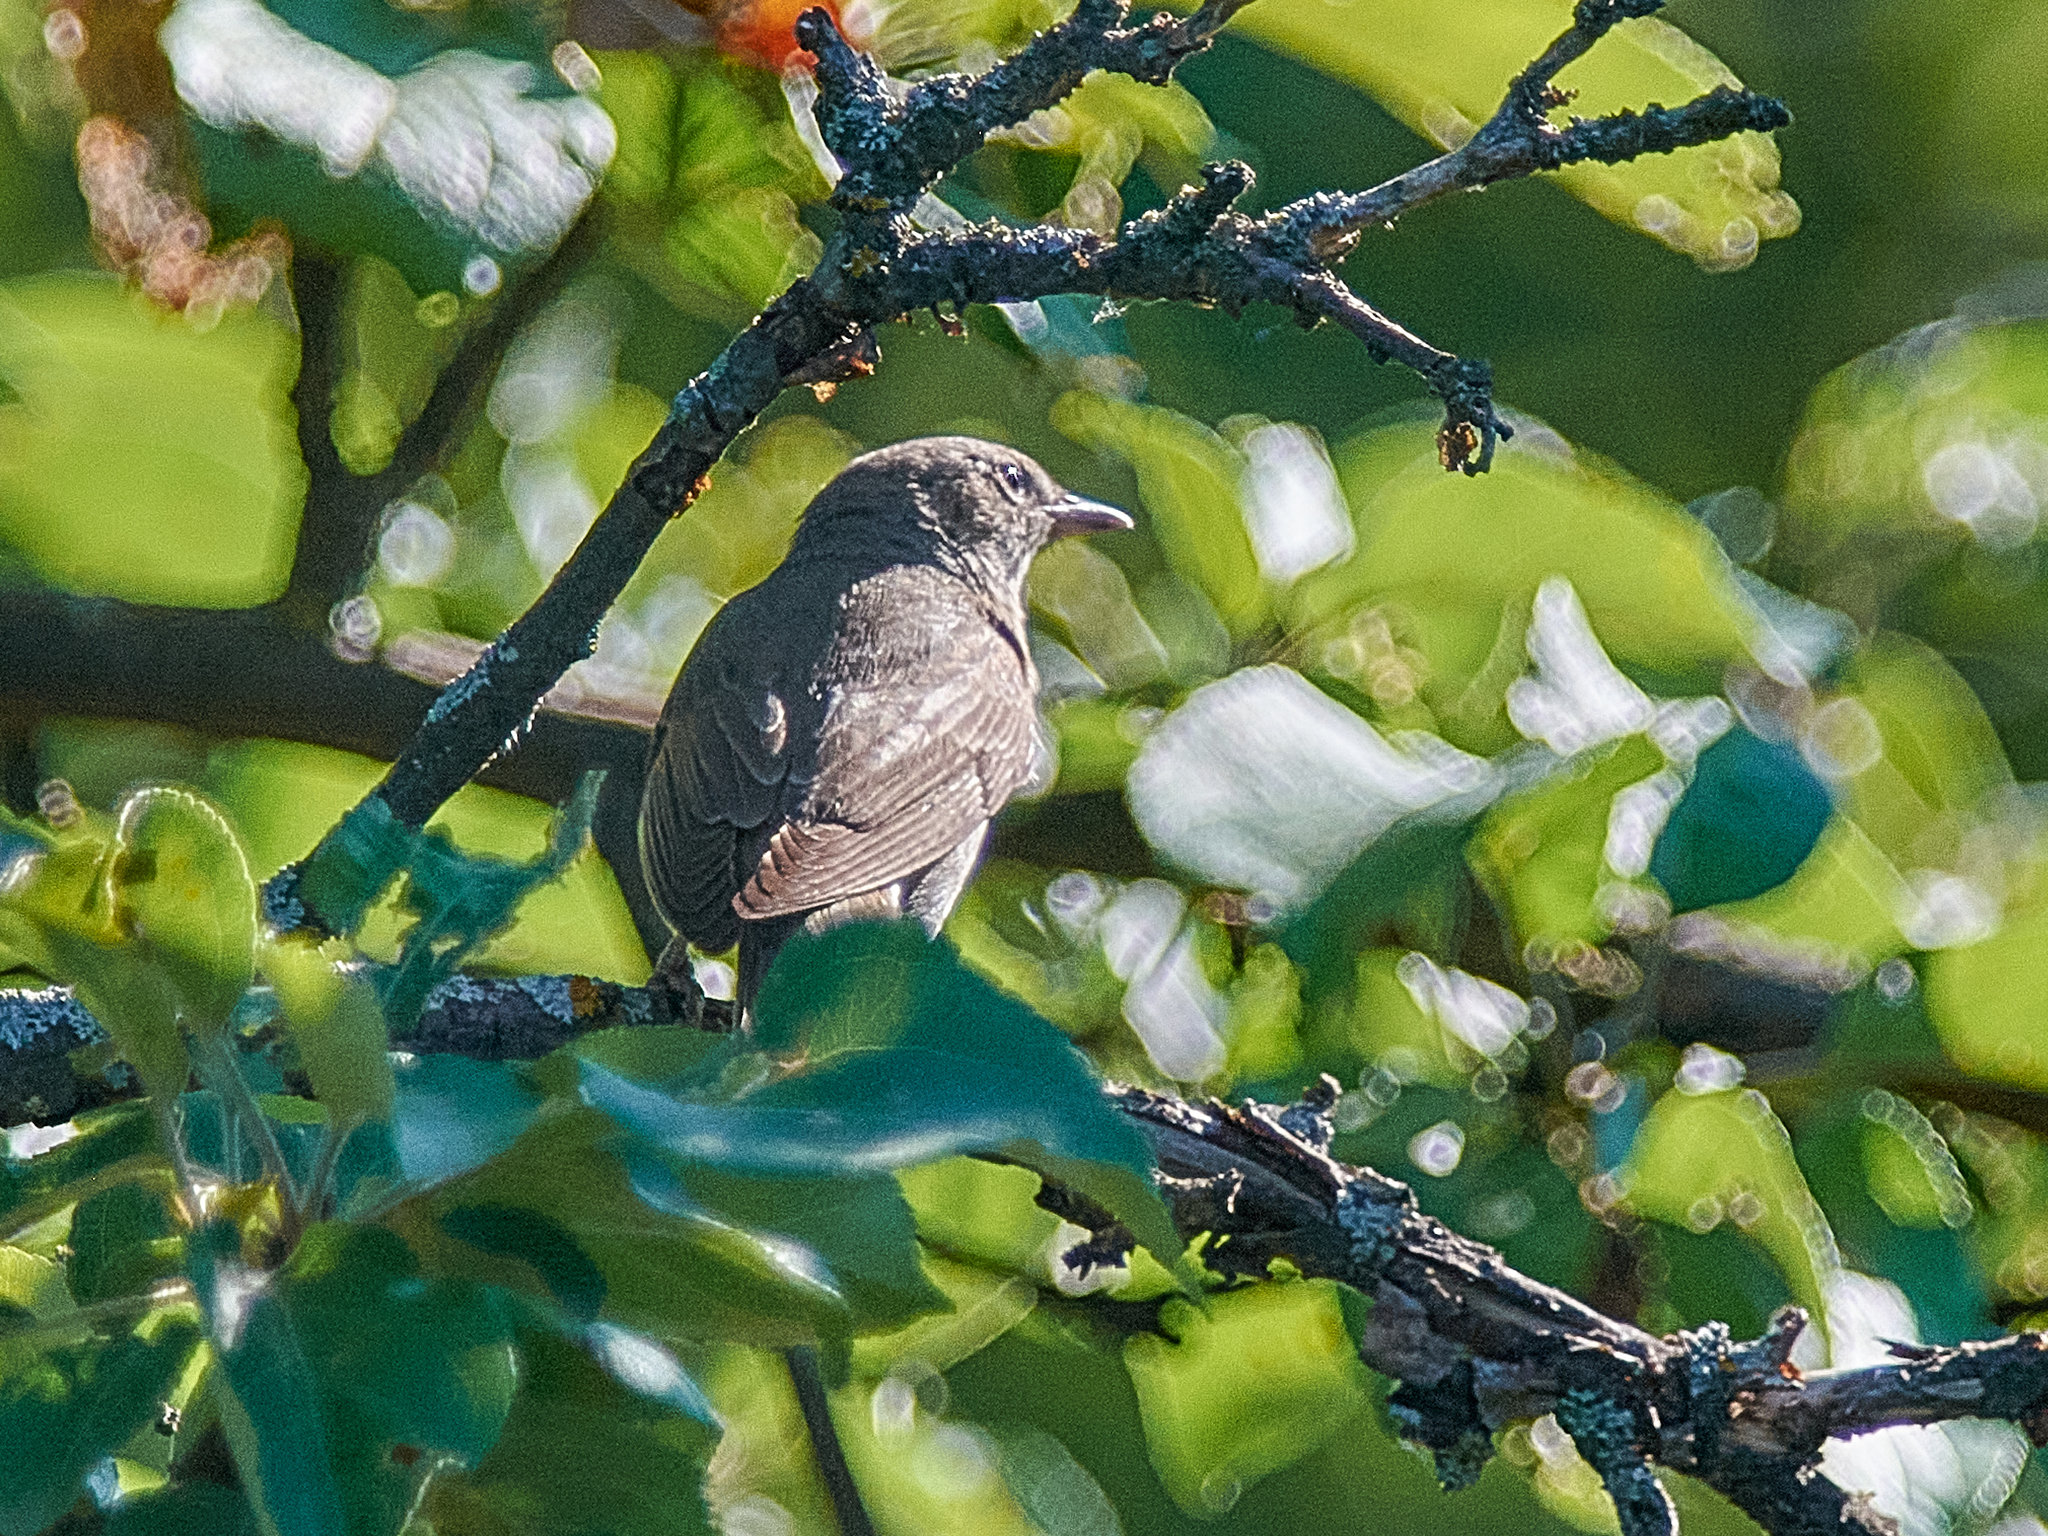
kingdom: Animalia
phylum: Chordata
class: Aves
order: Passeriformes
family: Sylviidae
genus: Sylvia
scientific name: Sylvia borin
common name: Garden warbler
